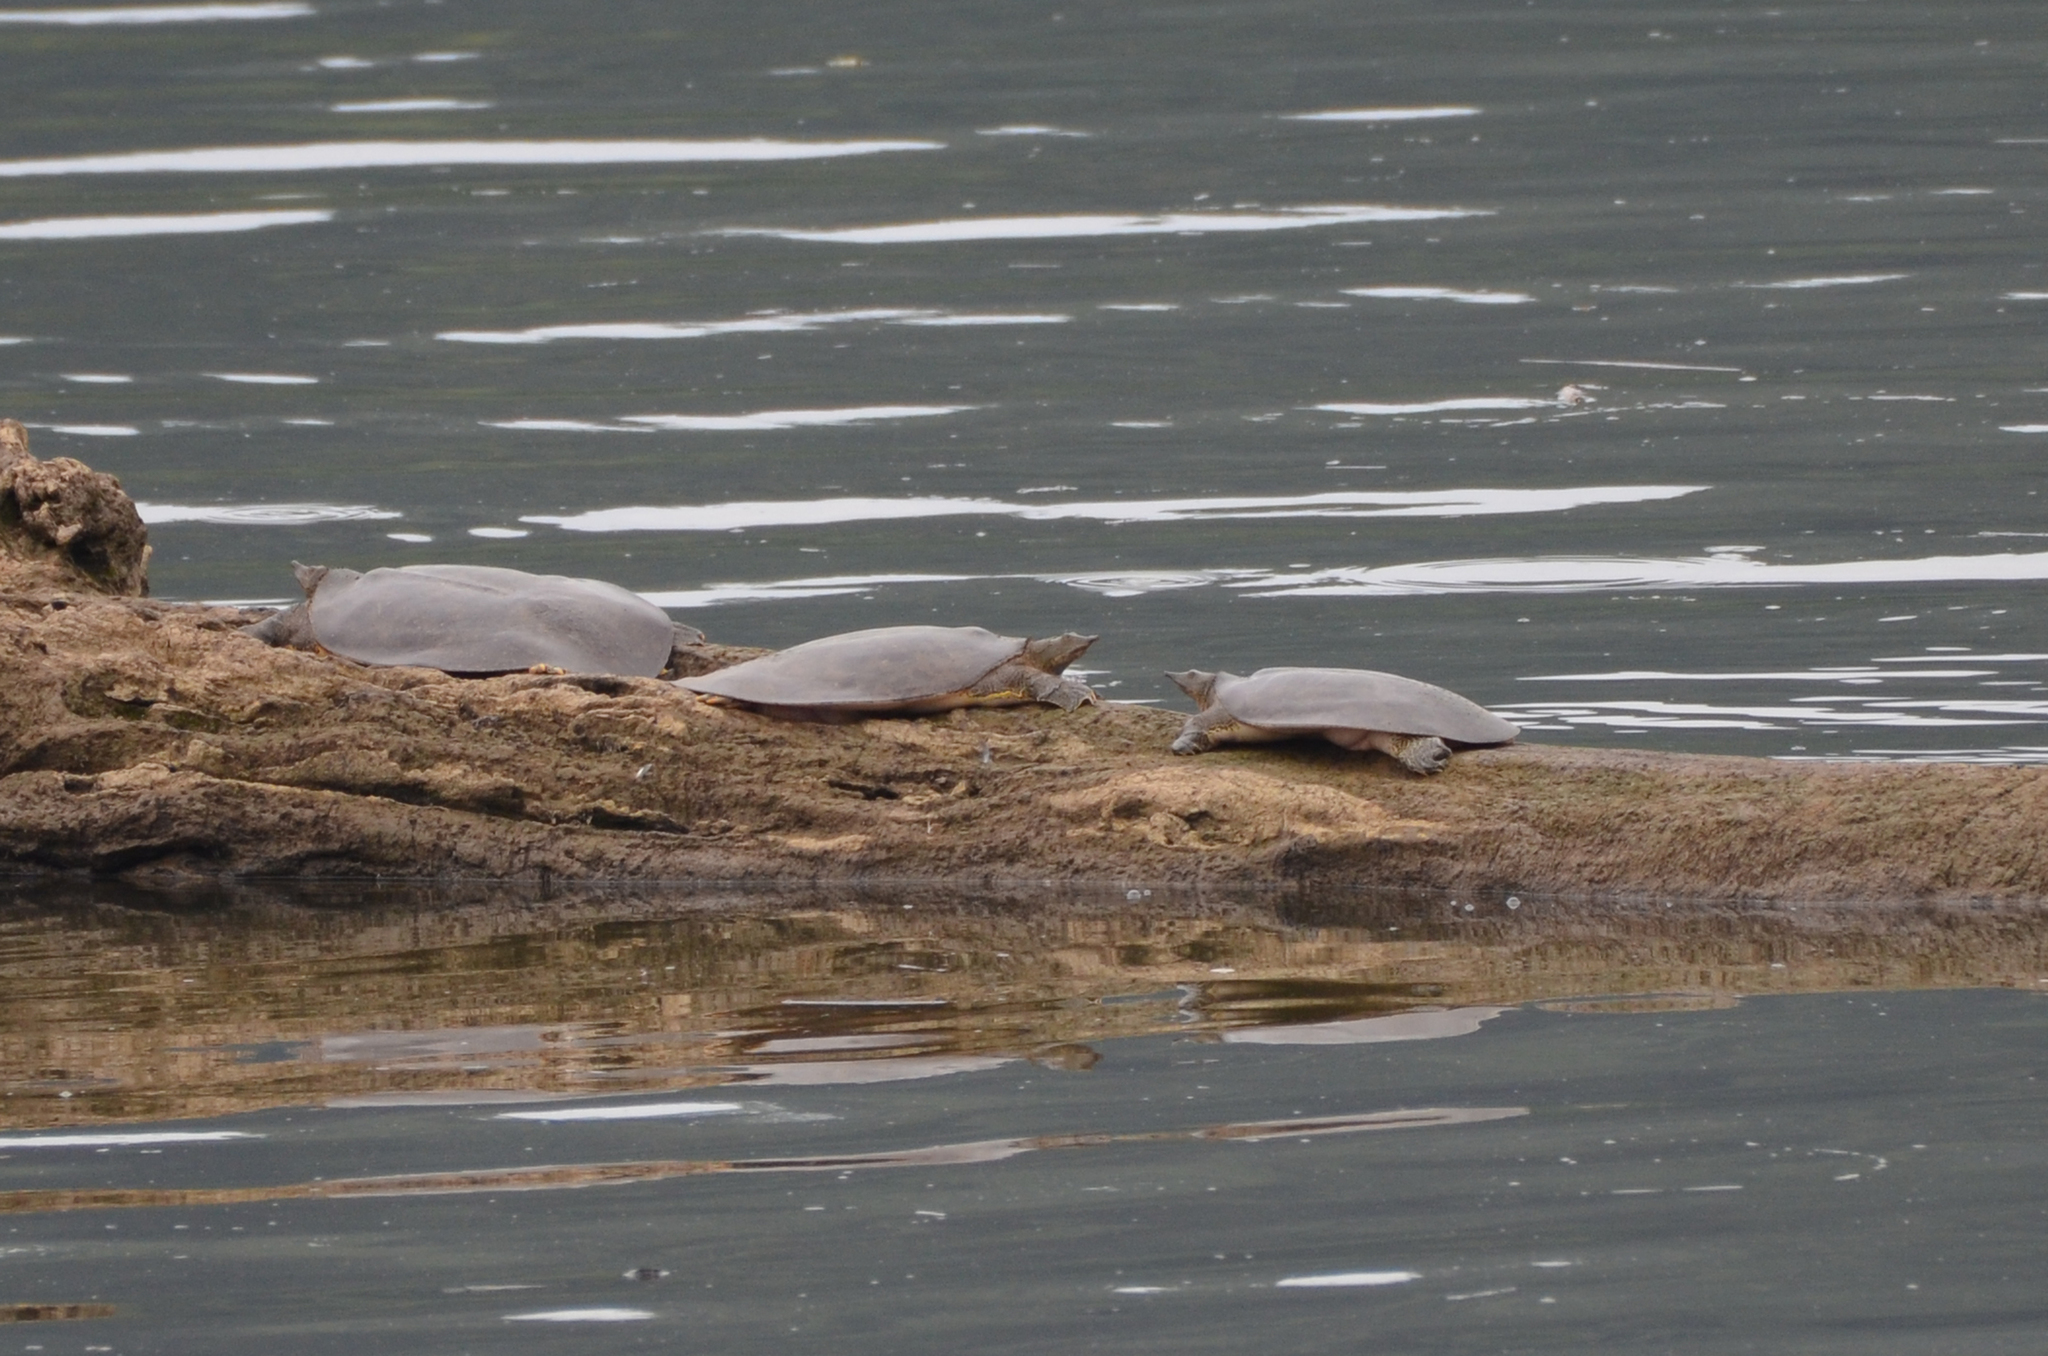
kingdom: Animalia
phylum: Chordata
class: Testudines
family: Trionychidae
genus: Apalone
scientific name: Apalone spinifera
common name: Spiny softshell turtle
